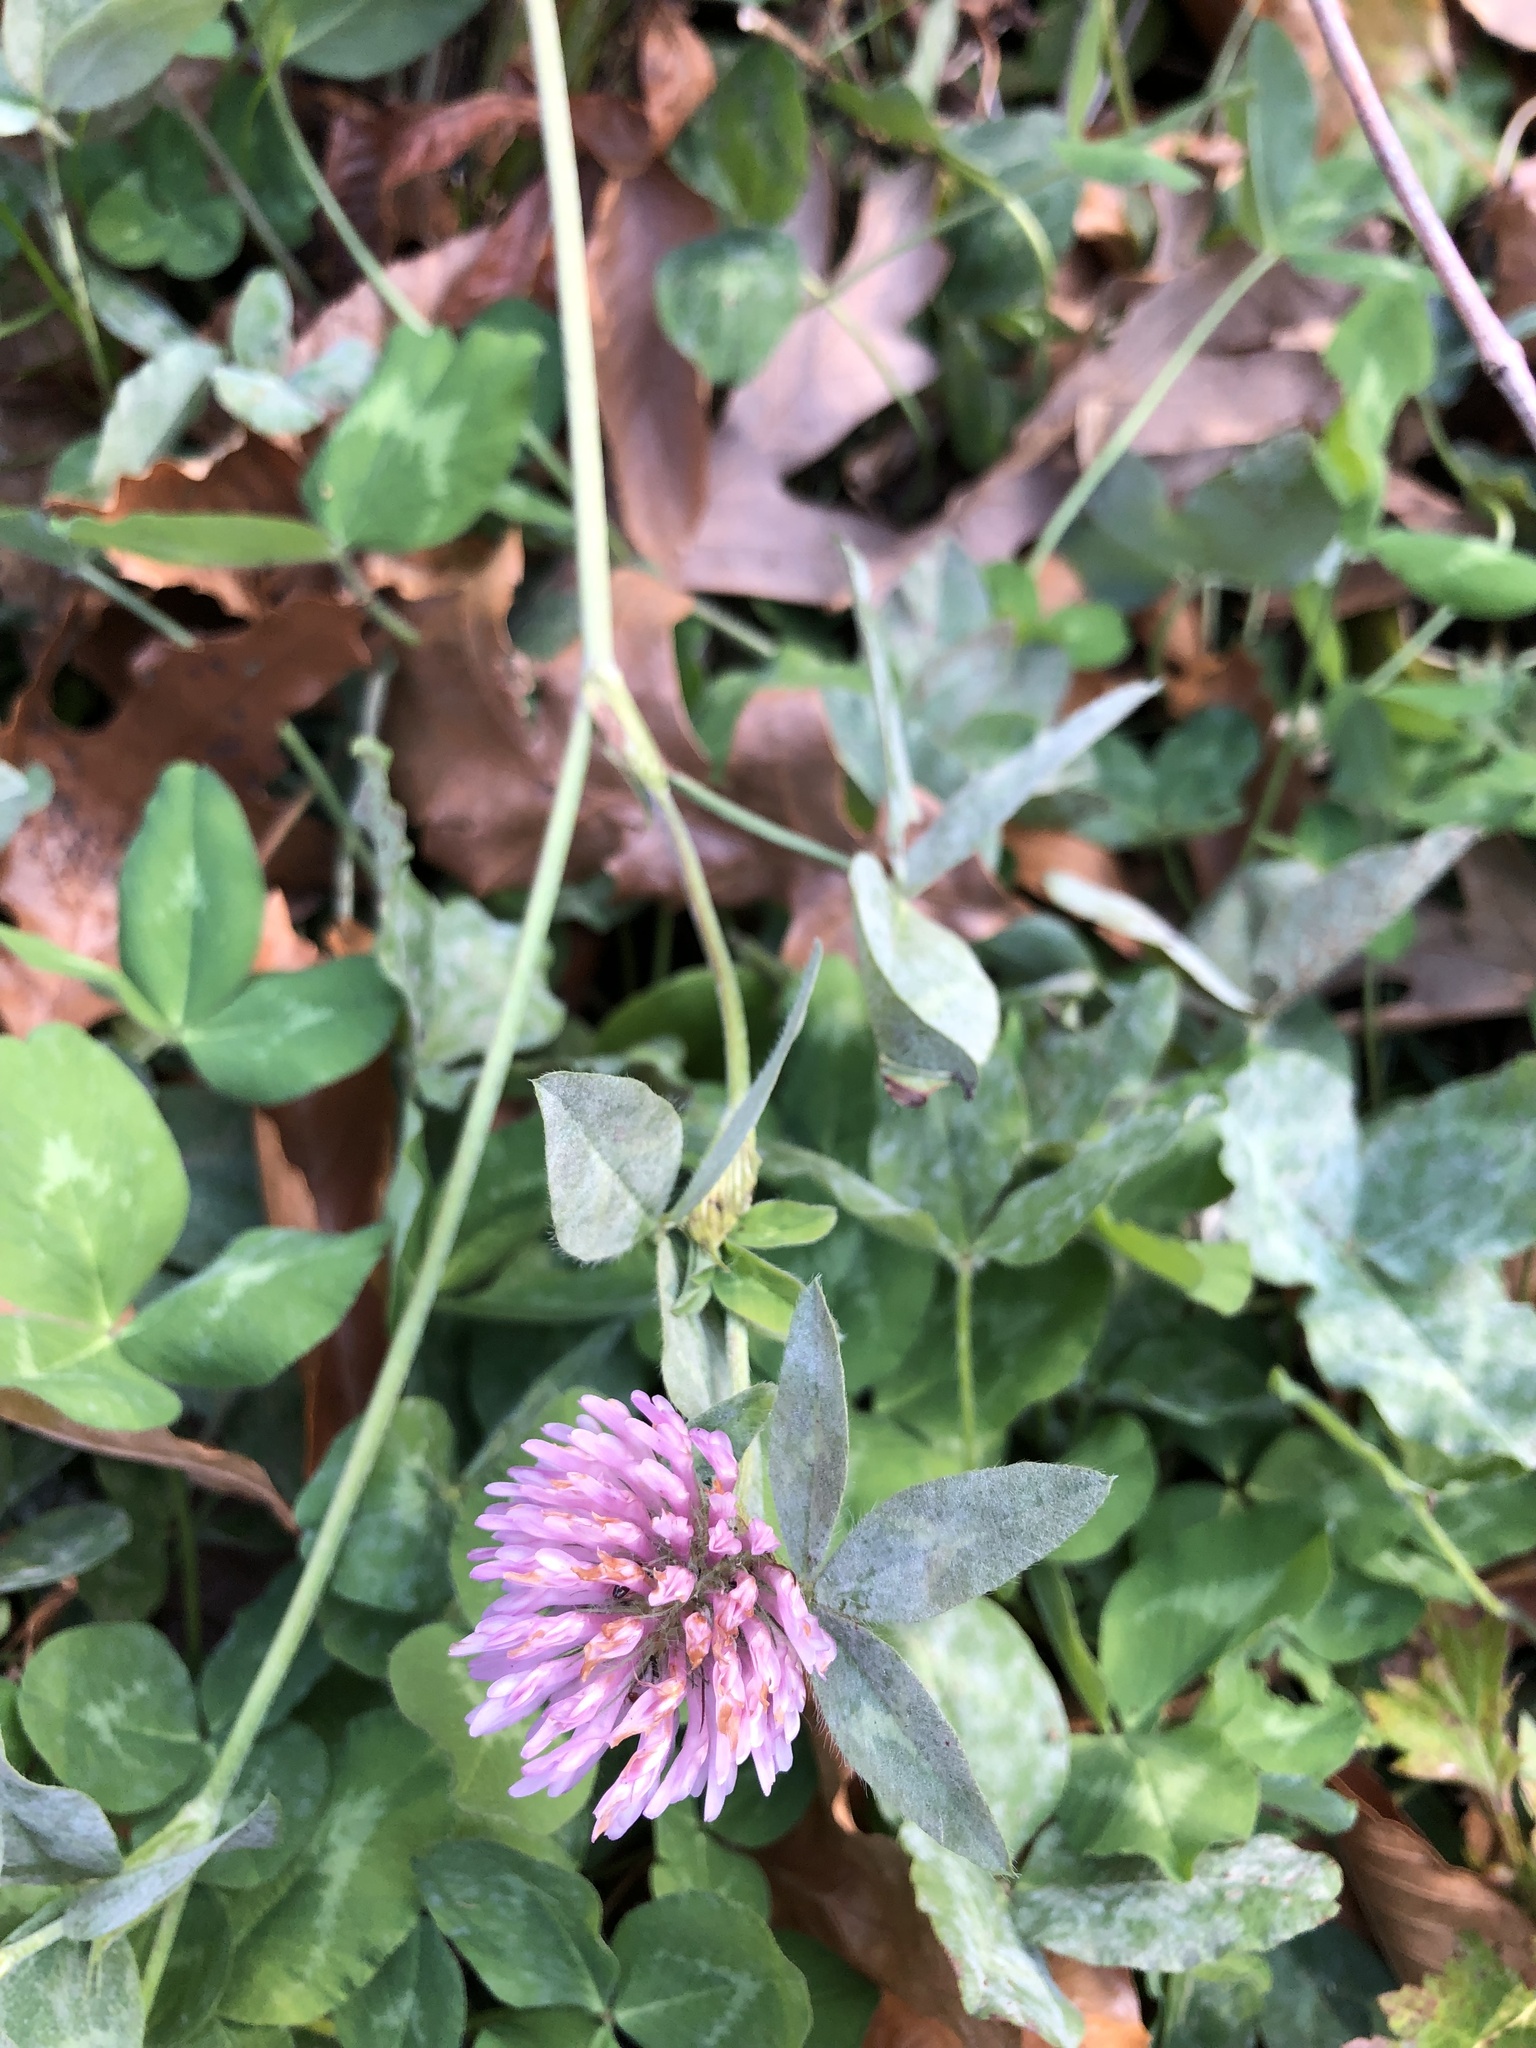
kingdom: Plantae
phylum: Tracheophyta
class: Magnoliopsida
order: Fabales
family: Fabaceae
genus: Trifolium
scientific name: Trifolium pratense
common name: Red clover
